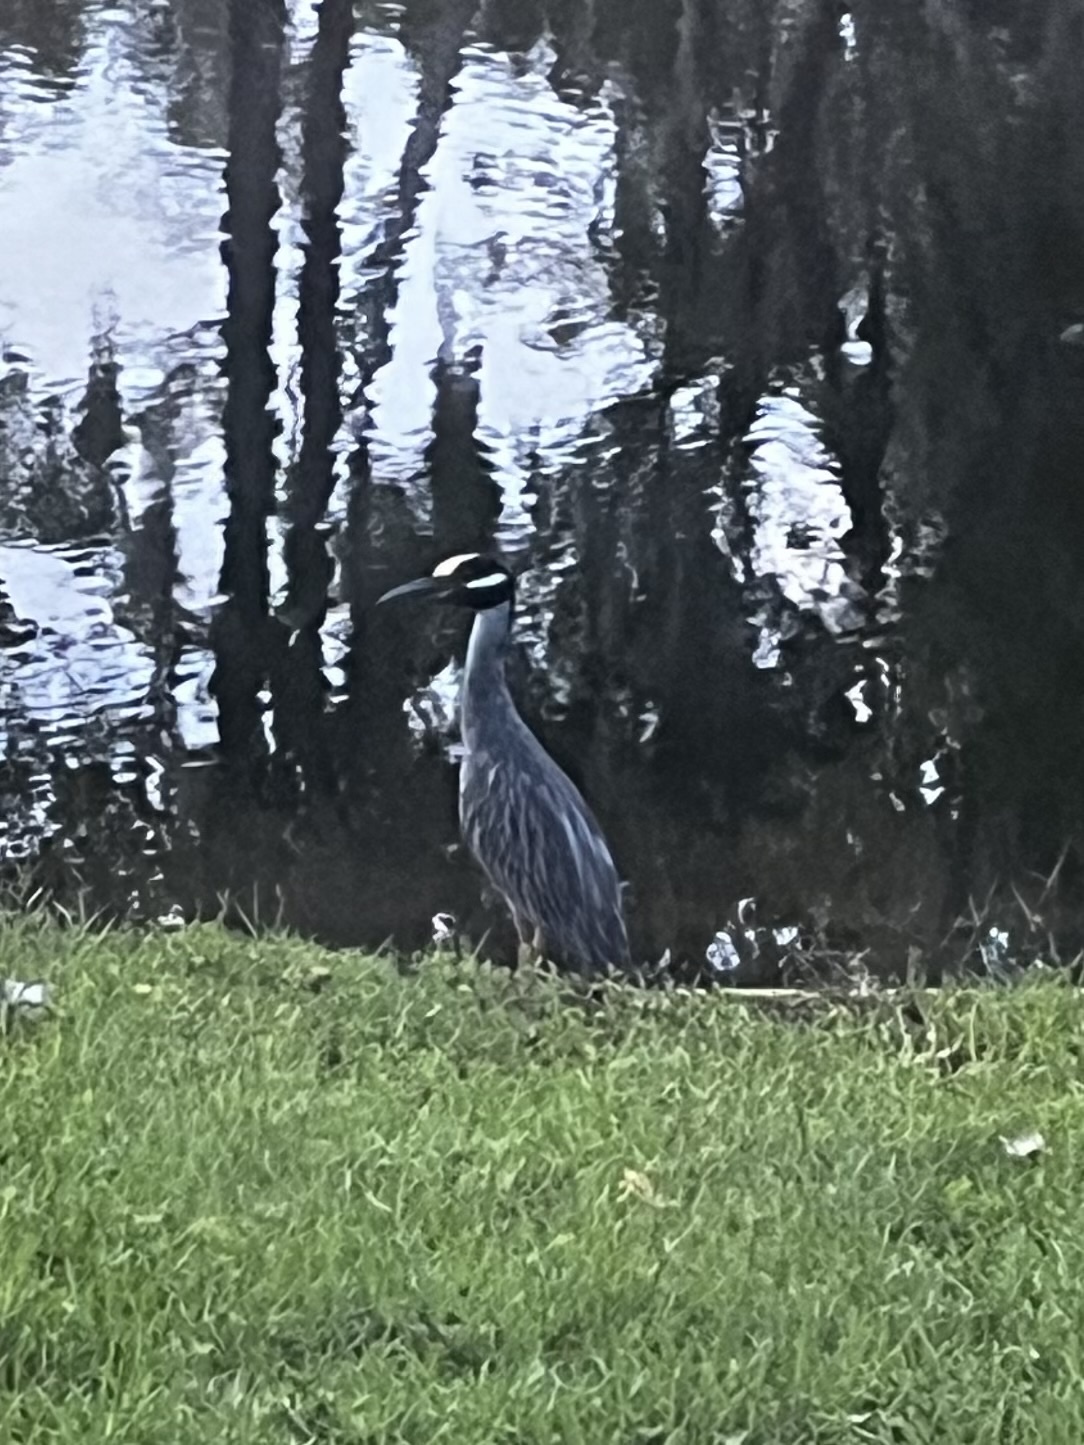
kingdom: Animalia
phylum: Chordata
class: Aves
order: Pelecaniformes
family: Ardeidae
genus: Nyctanassa
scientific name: Nyctanassa violacea
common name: Yellow-crowned night heron
